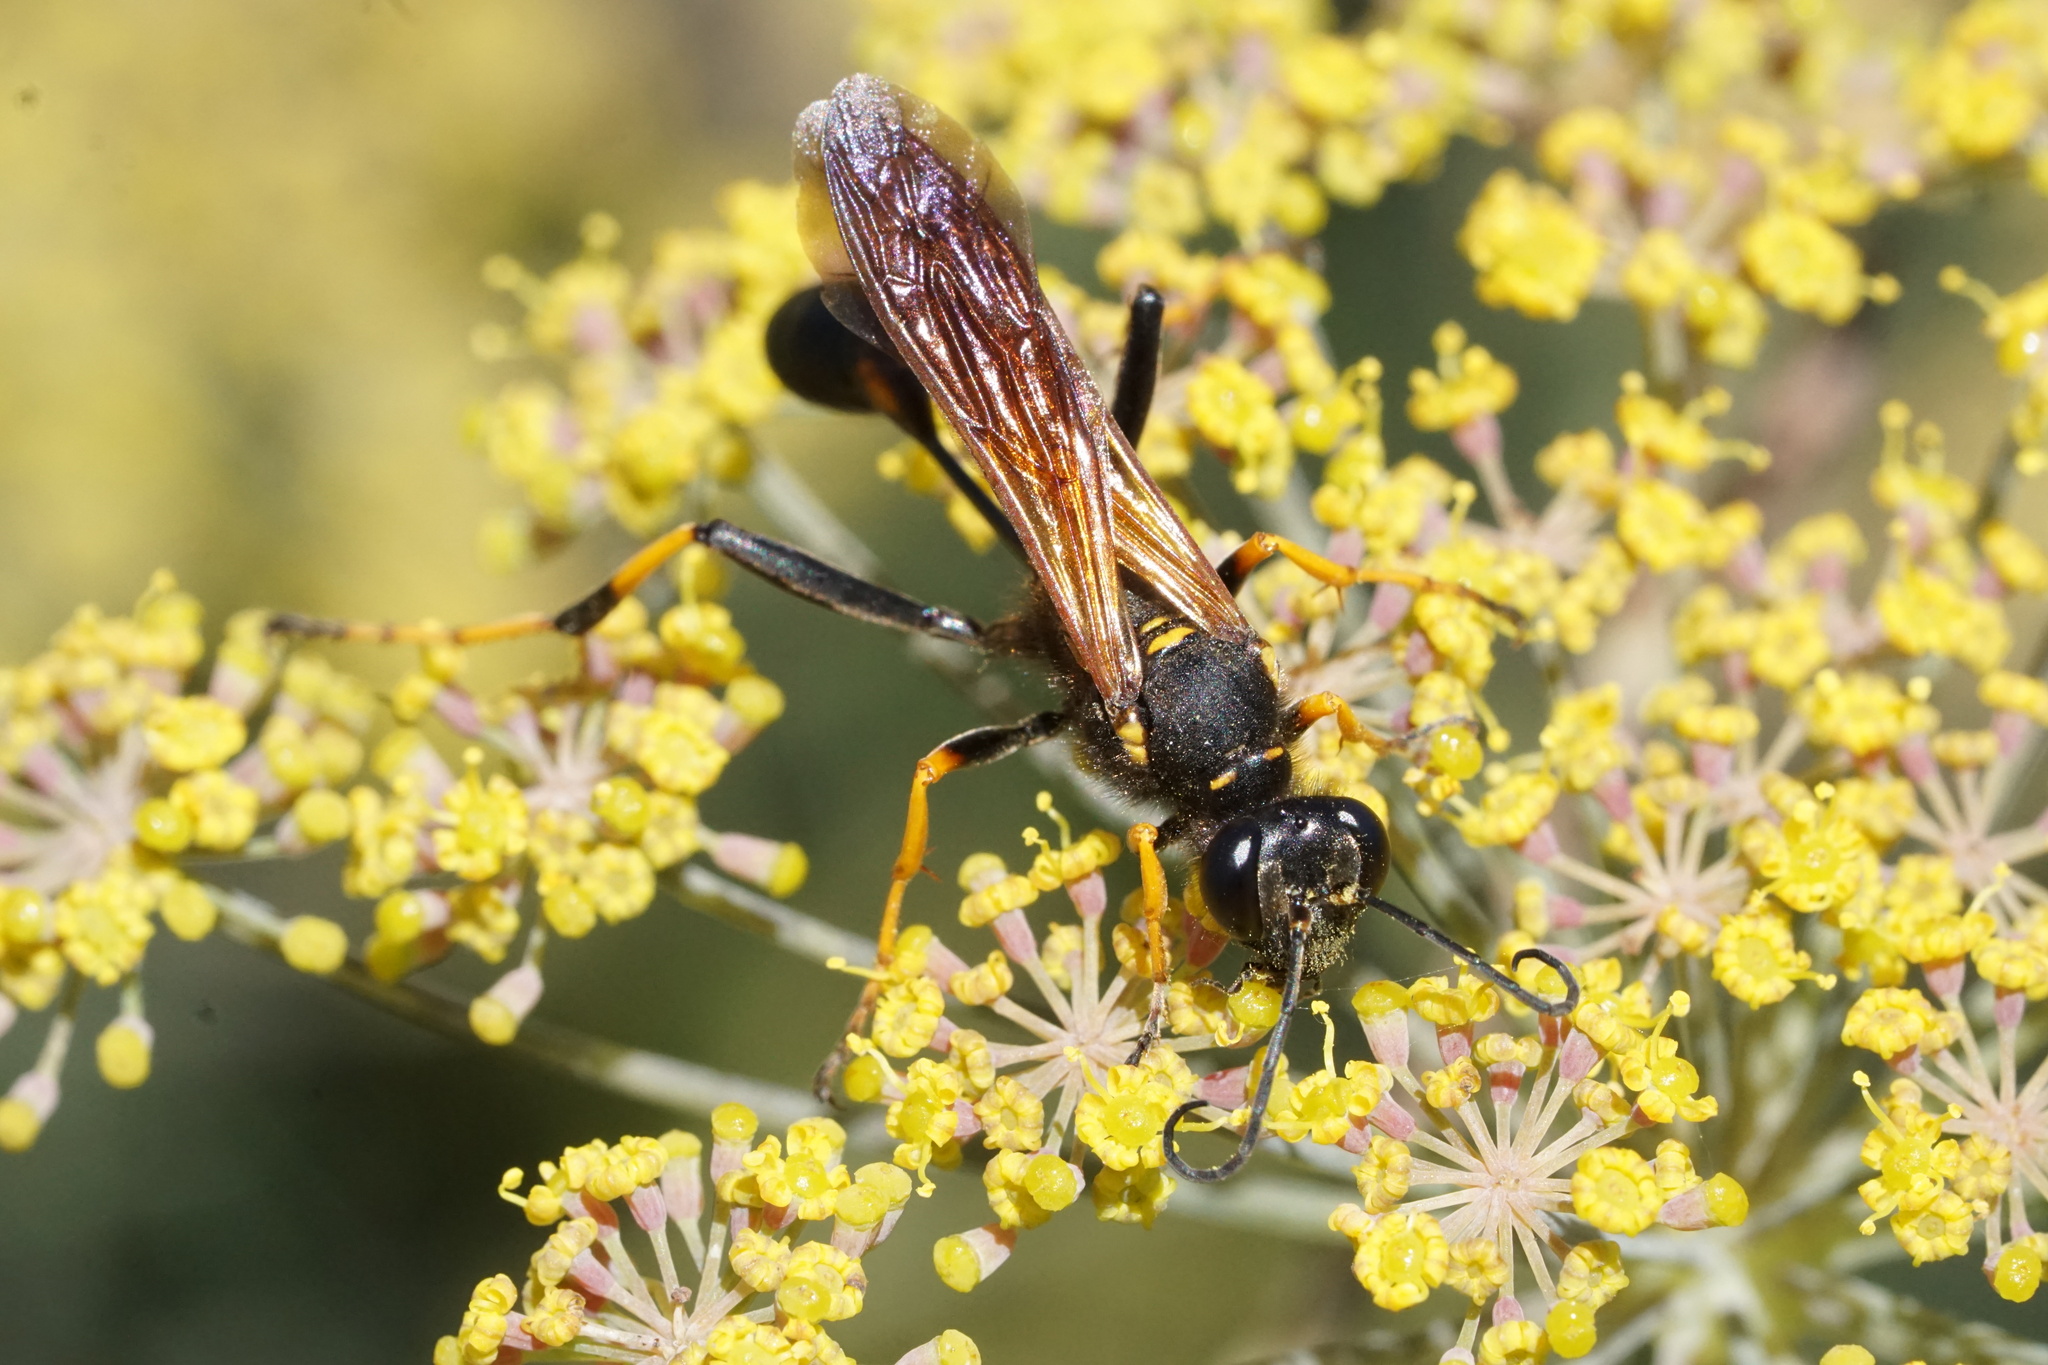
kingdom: Animalia
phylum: Arthropoda
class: Insecta
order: Hymenoptera
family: Sphecidae
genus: Sceliphron
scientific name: Sceliphron caementarium
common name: Mud dauber
